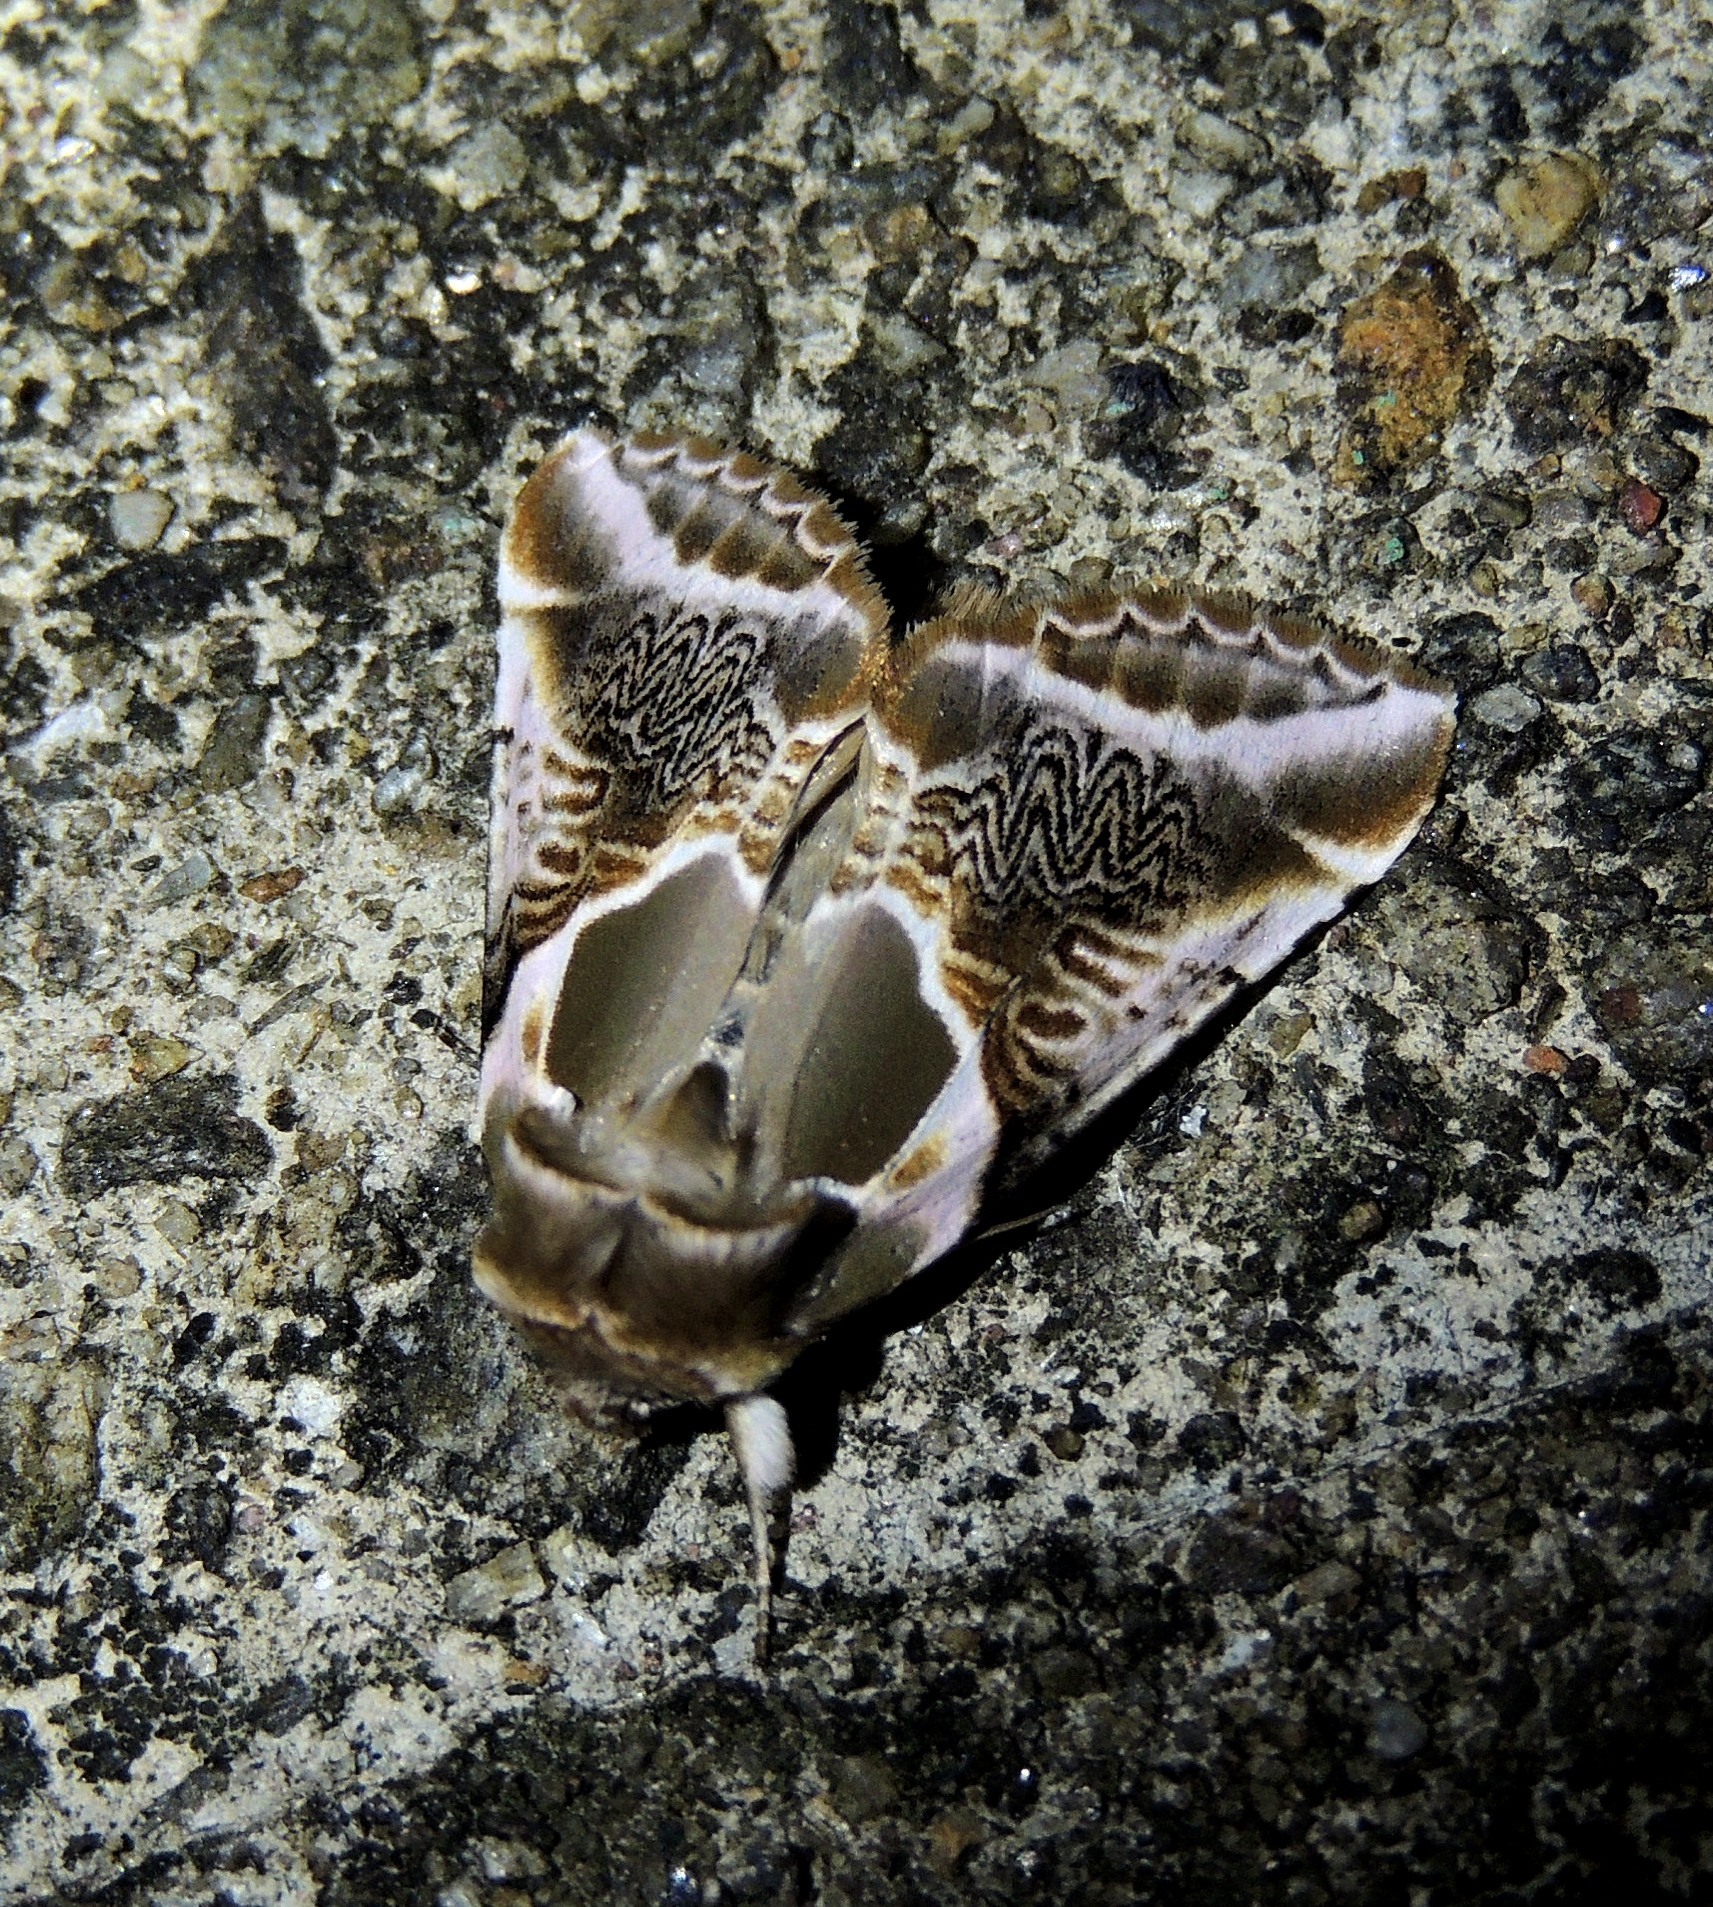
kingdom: Animalia
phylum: Arthropoda
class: Insecta
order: Lepidoptera
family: Drepanidae
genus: Habrosyne
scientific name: Habrosyne scripta
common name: Lettered habrosyne moth
